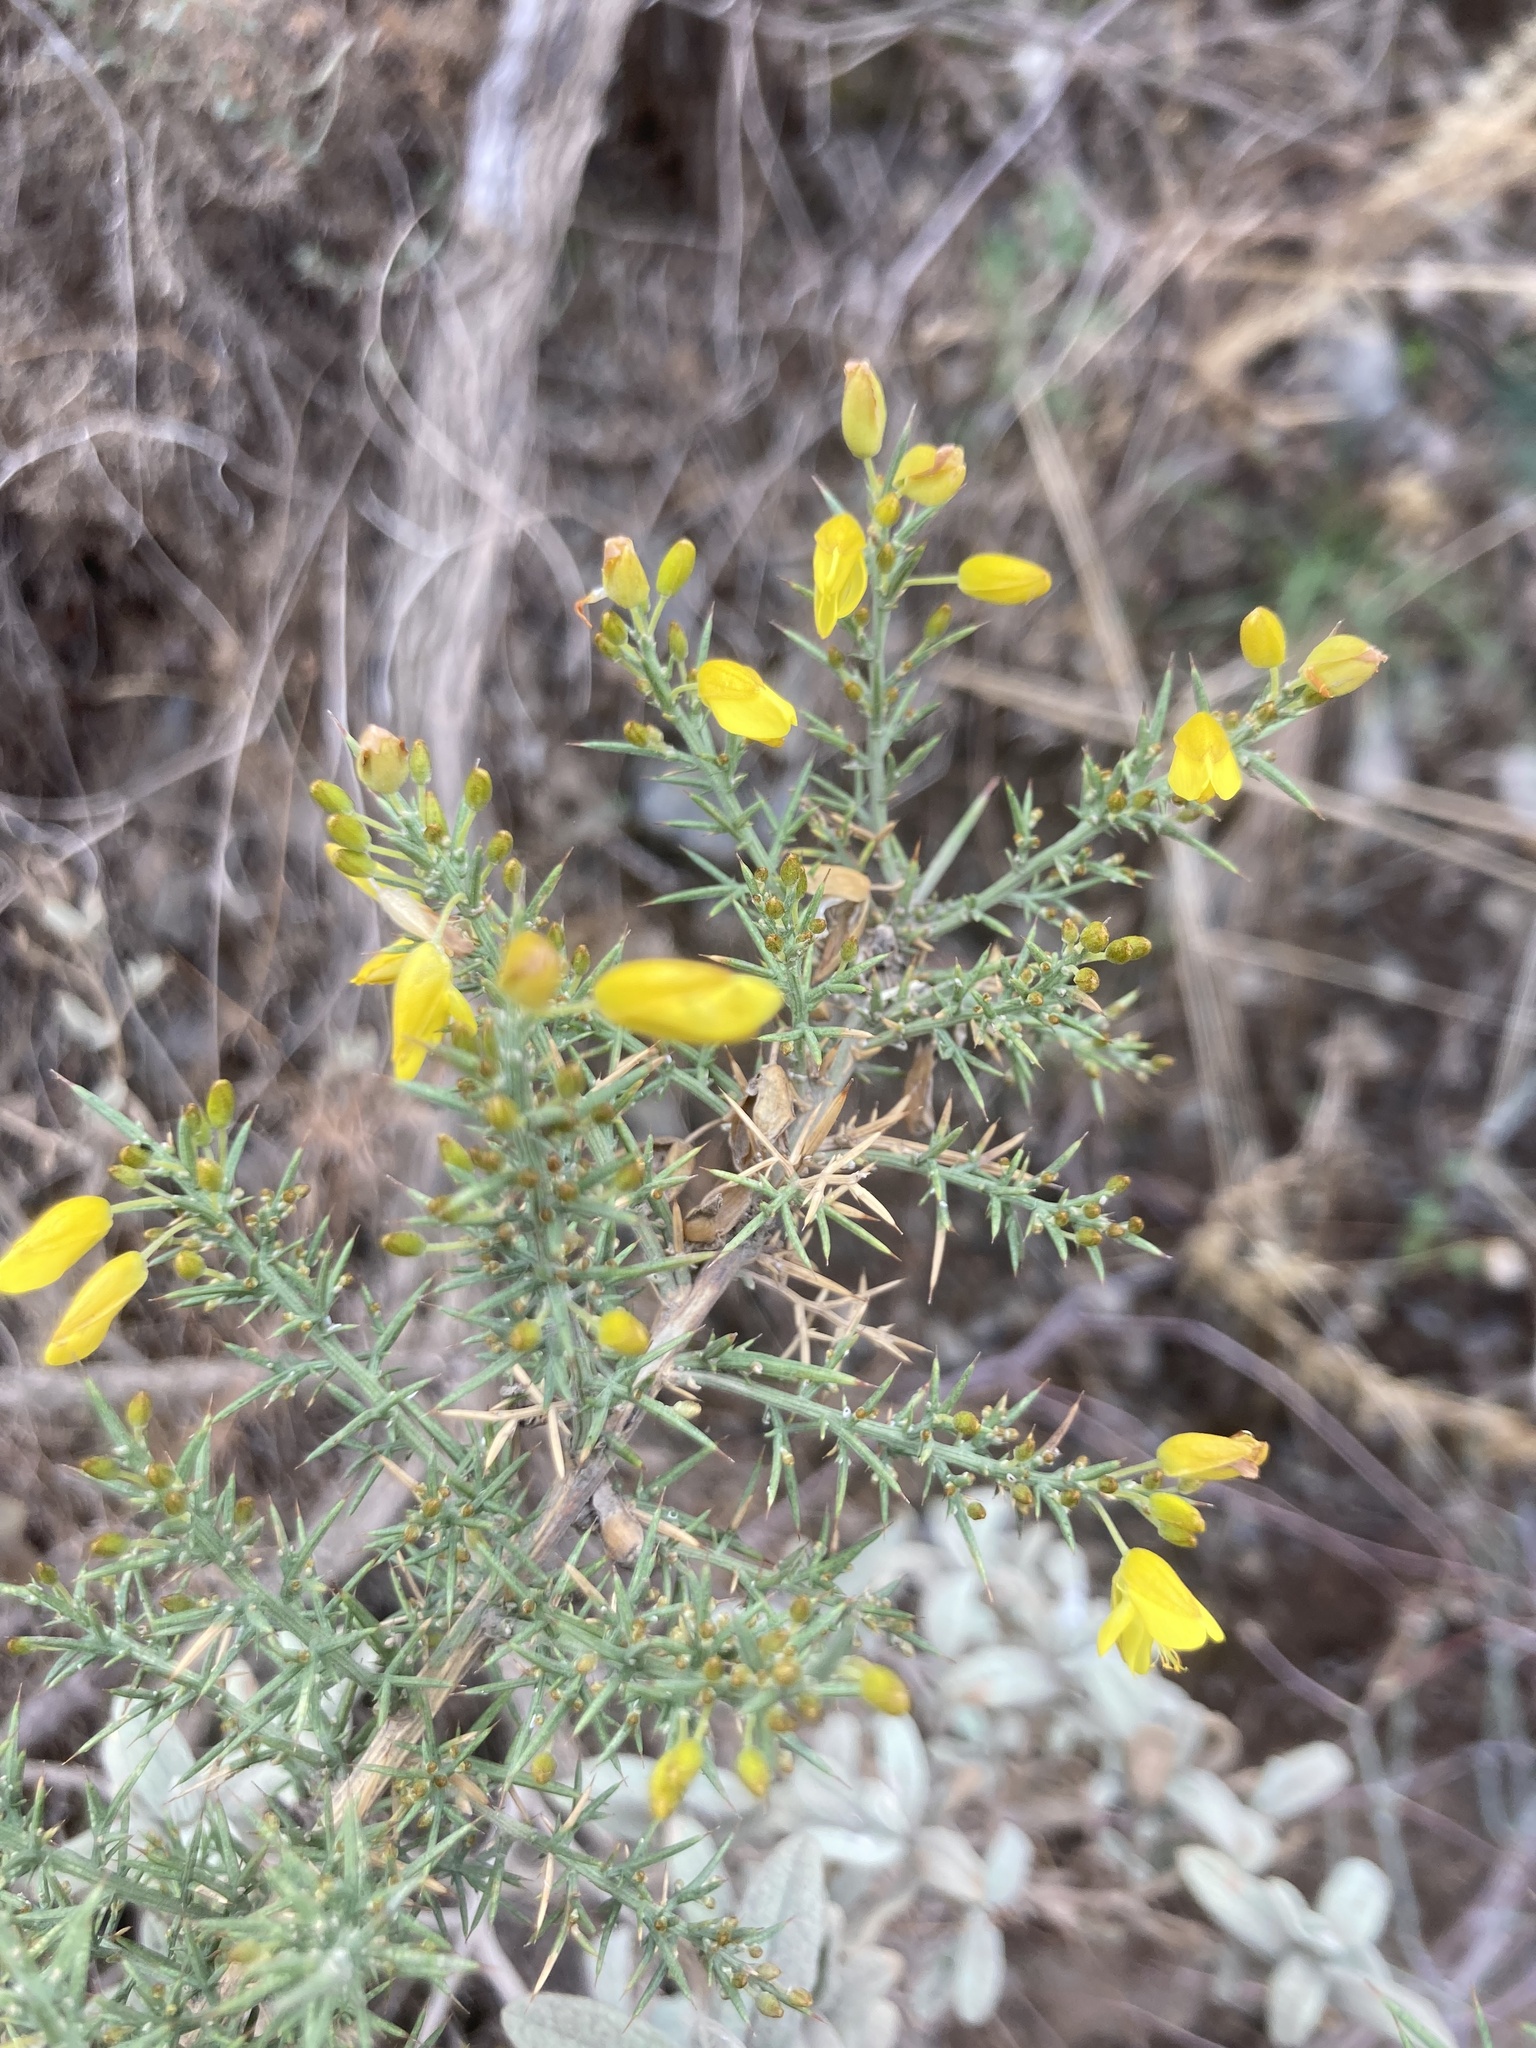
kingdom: Plantae
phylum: Tracheophyta
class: Magnoliopsida
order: Fabales
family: Fabaceae
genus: Ulex
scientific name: Ulex parviflorus
